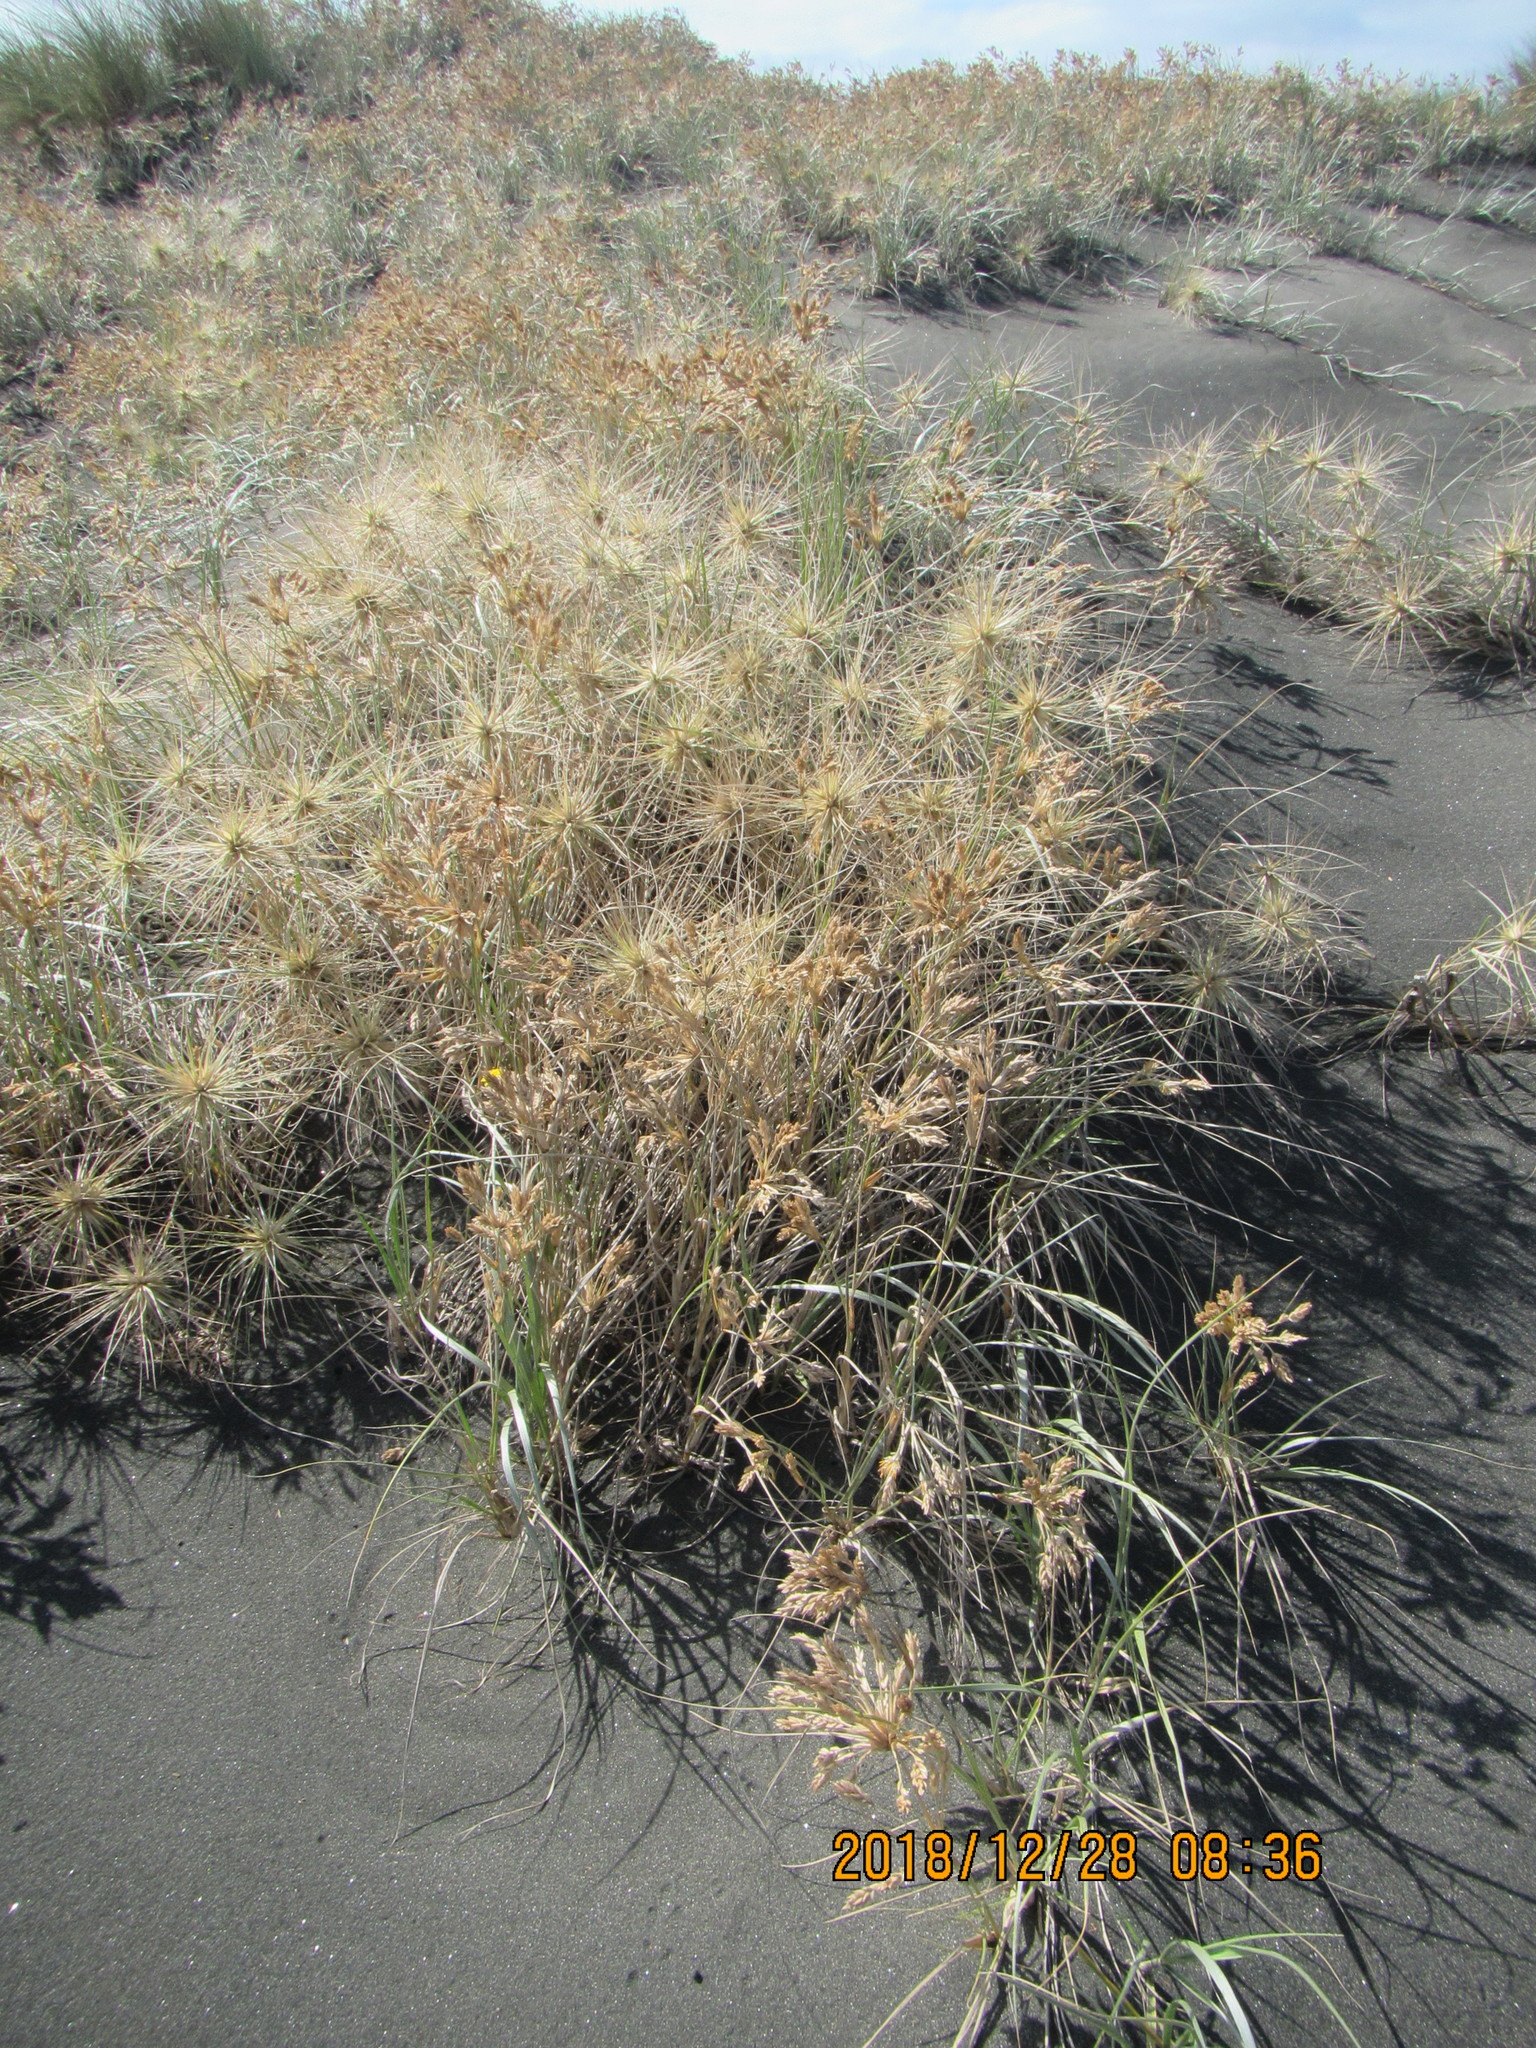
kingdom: Plantae
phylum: Tracheophyta
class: Liliopsida
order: Poales
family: Poaceae
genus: Spinifex
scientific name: Spinifex sericeus
